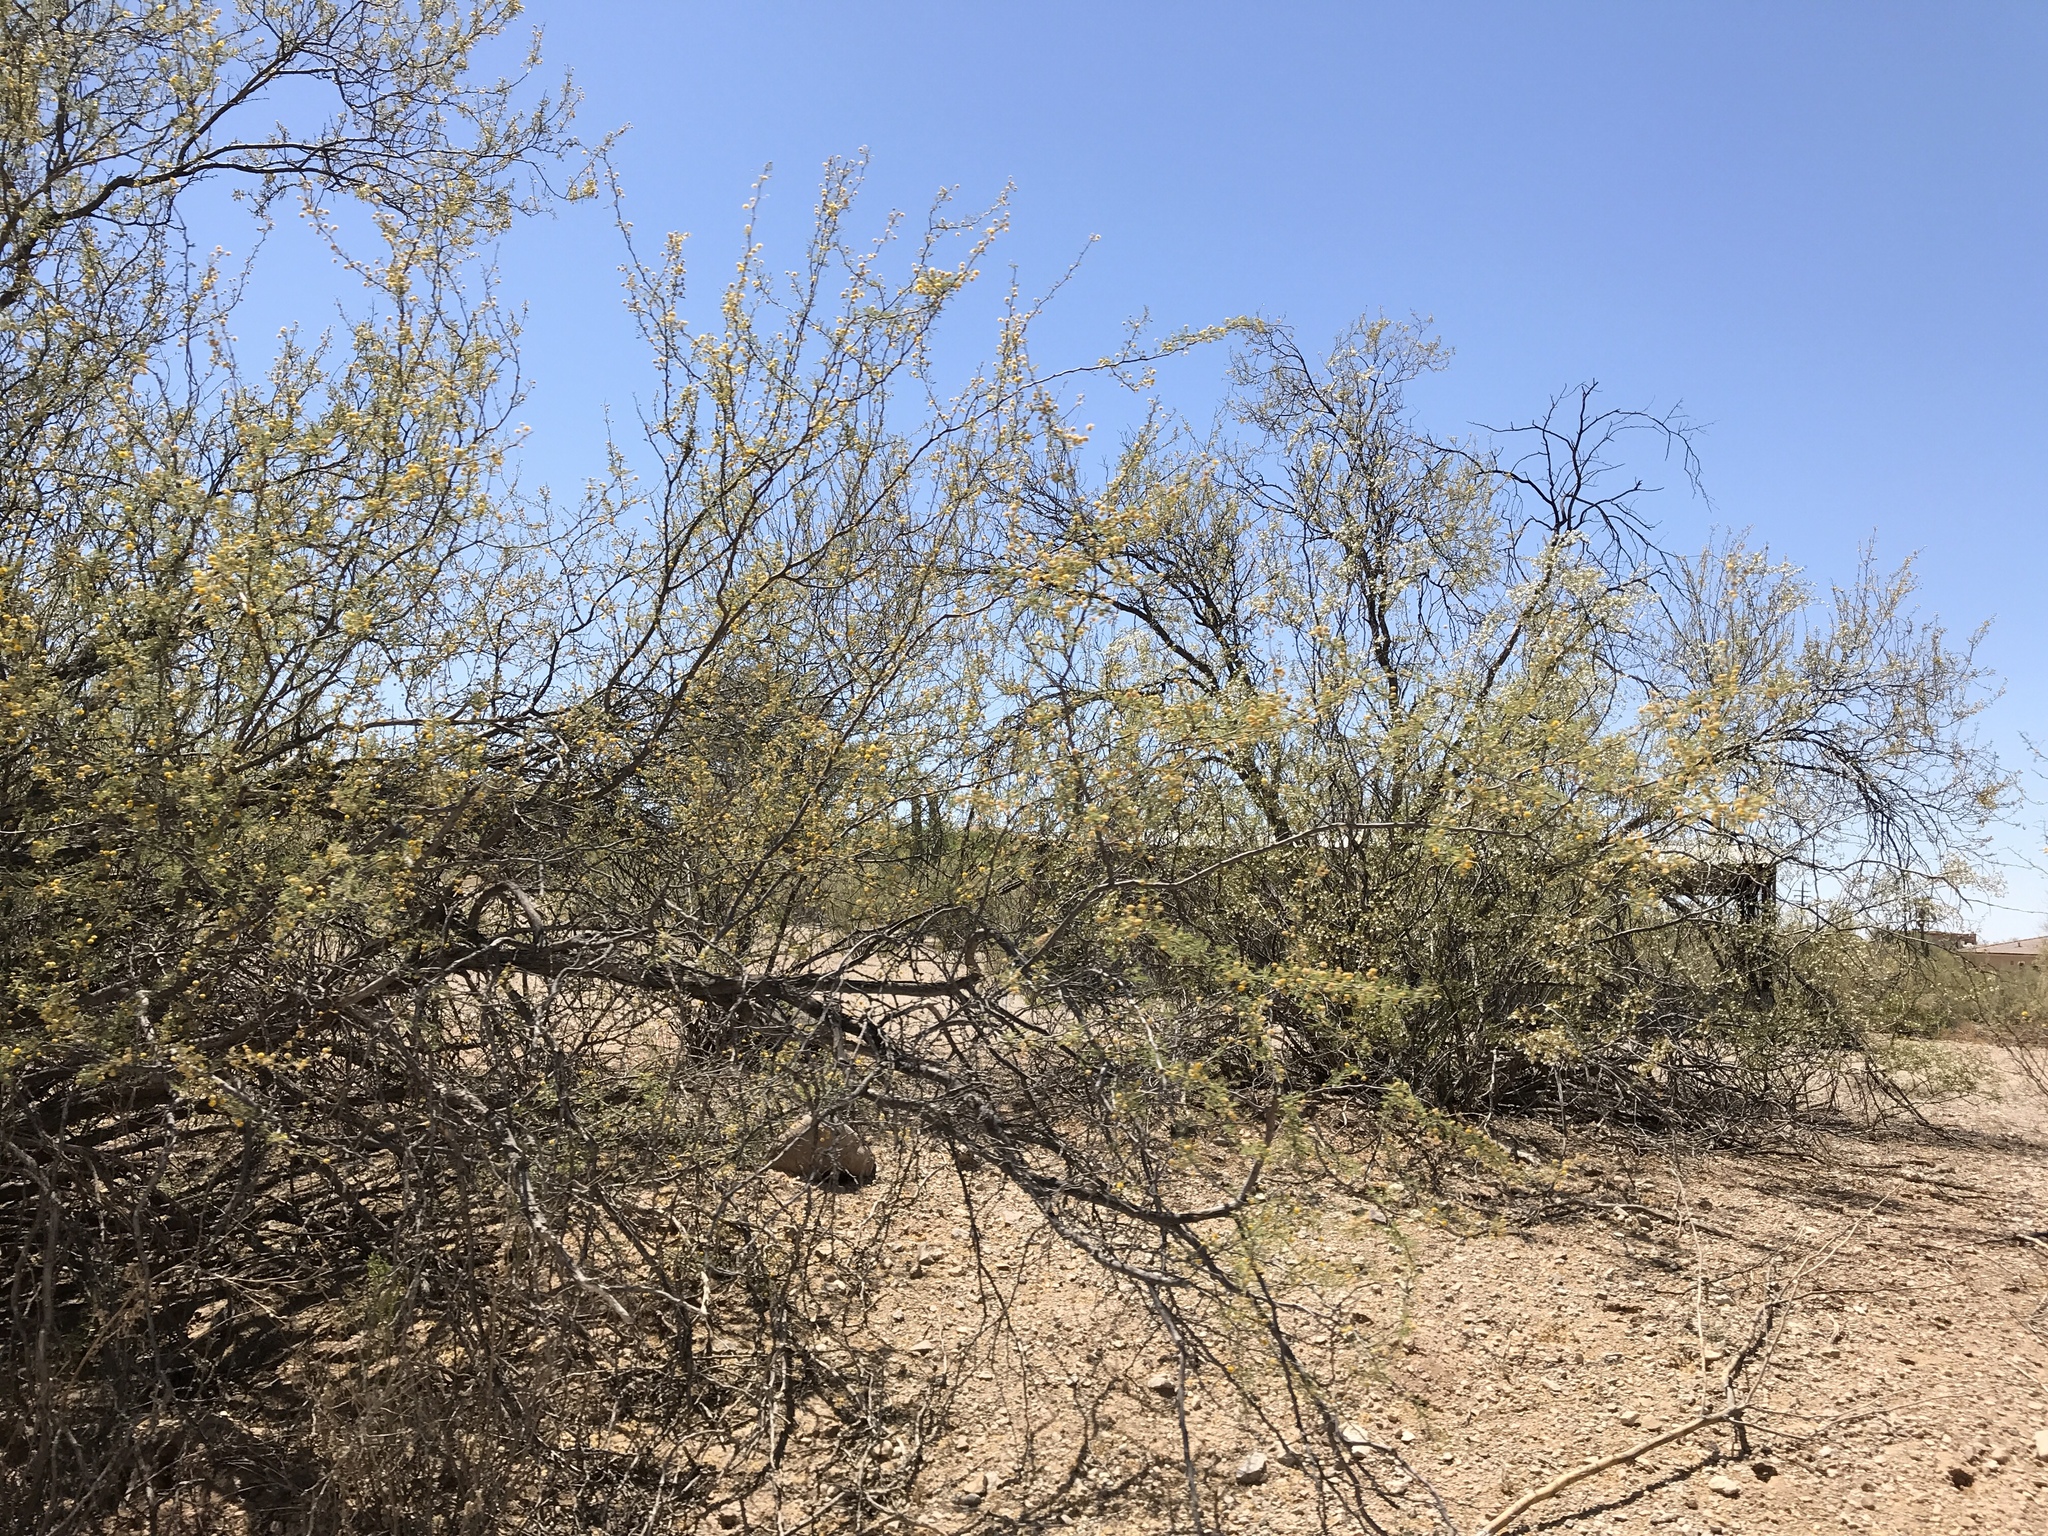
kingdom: Plantae
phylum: Tracheophyta
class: Magnoliopsida
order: Fabales
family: Fabaceae
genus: Olneya
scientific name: Olneya tesota
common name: Desert ironwood
